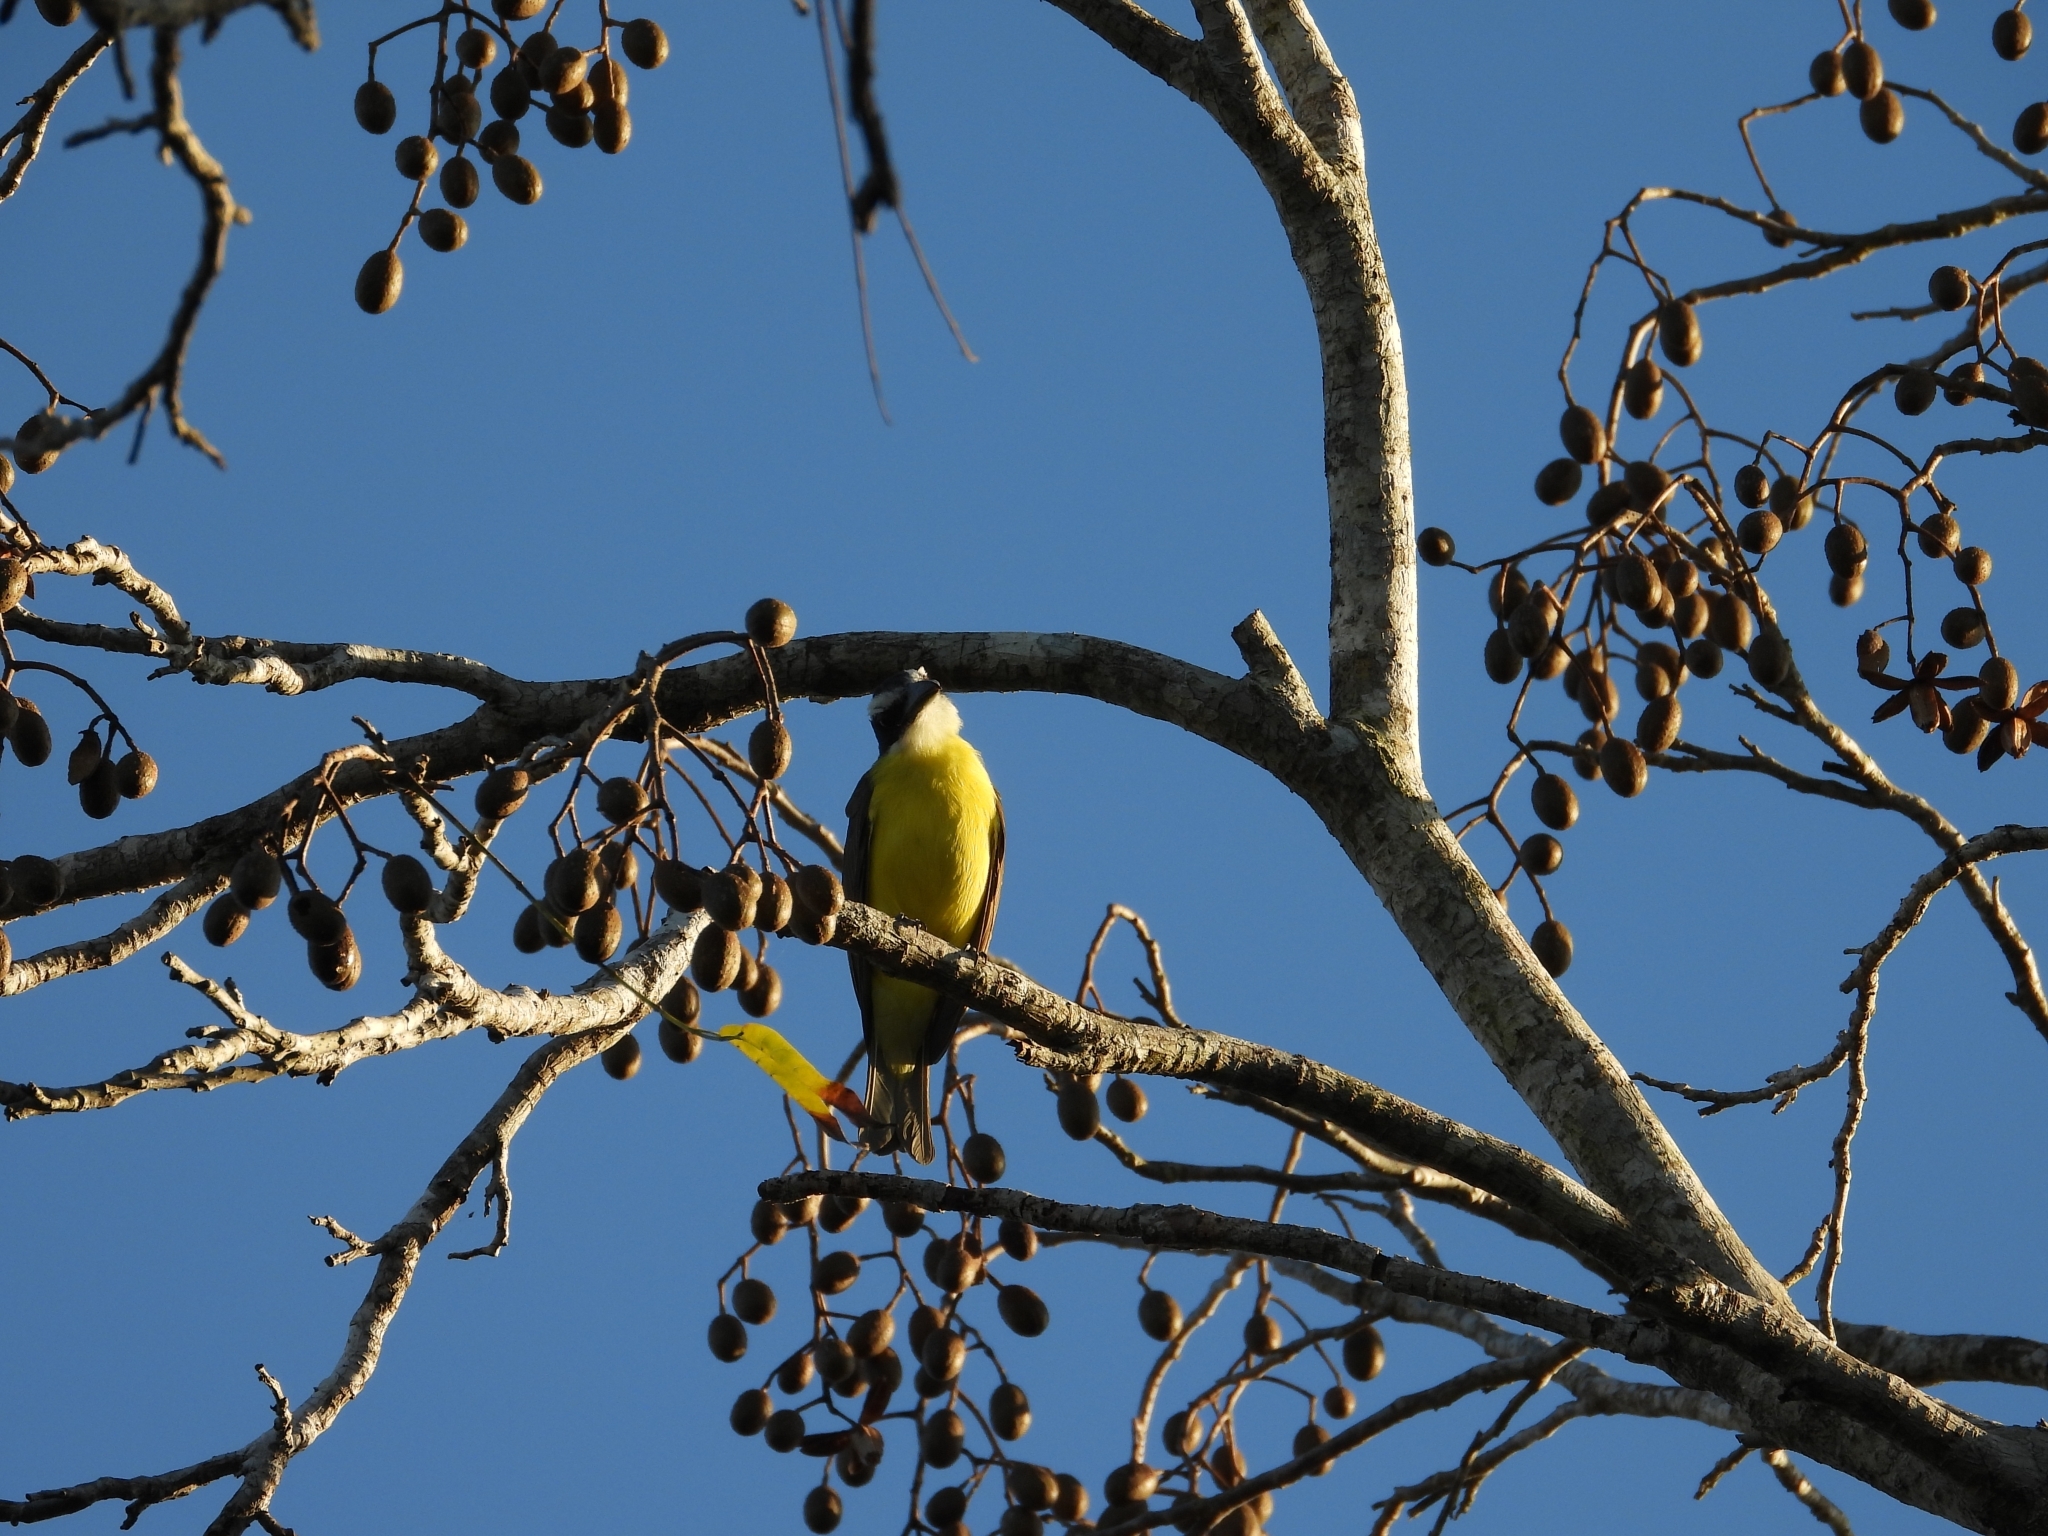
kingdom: Animalia
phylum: Chordata
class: Aves
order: Passeriformes
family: Tyrannidae
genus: Megarynchus
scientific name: Megarynchus pitangua
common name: Boat-billed flycatcher
